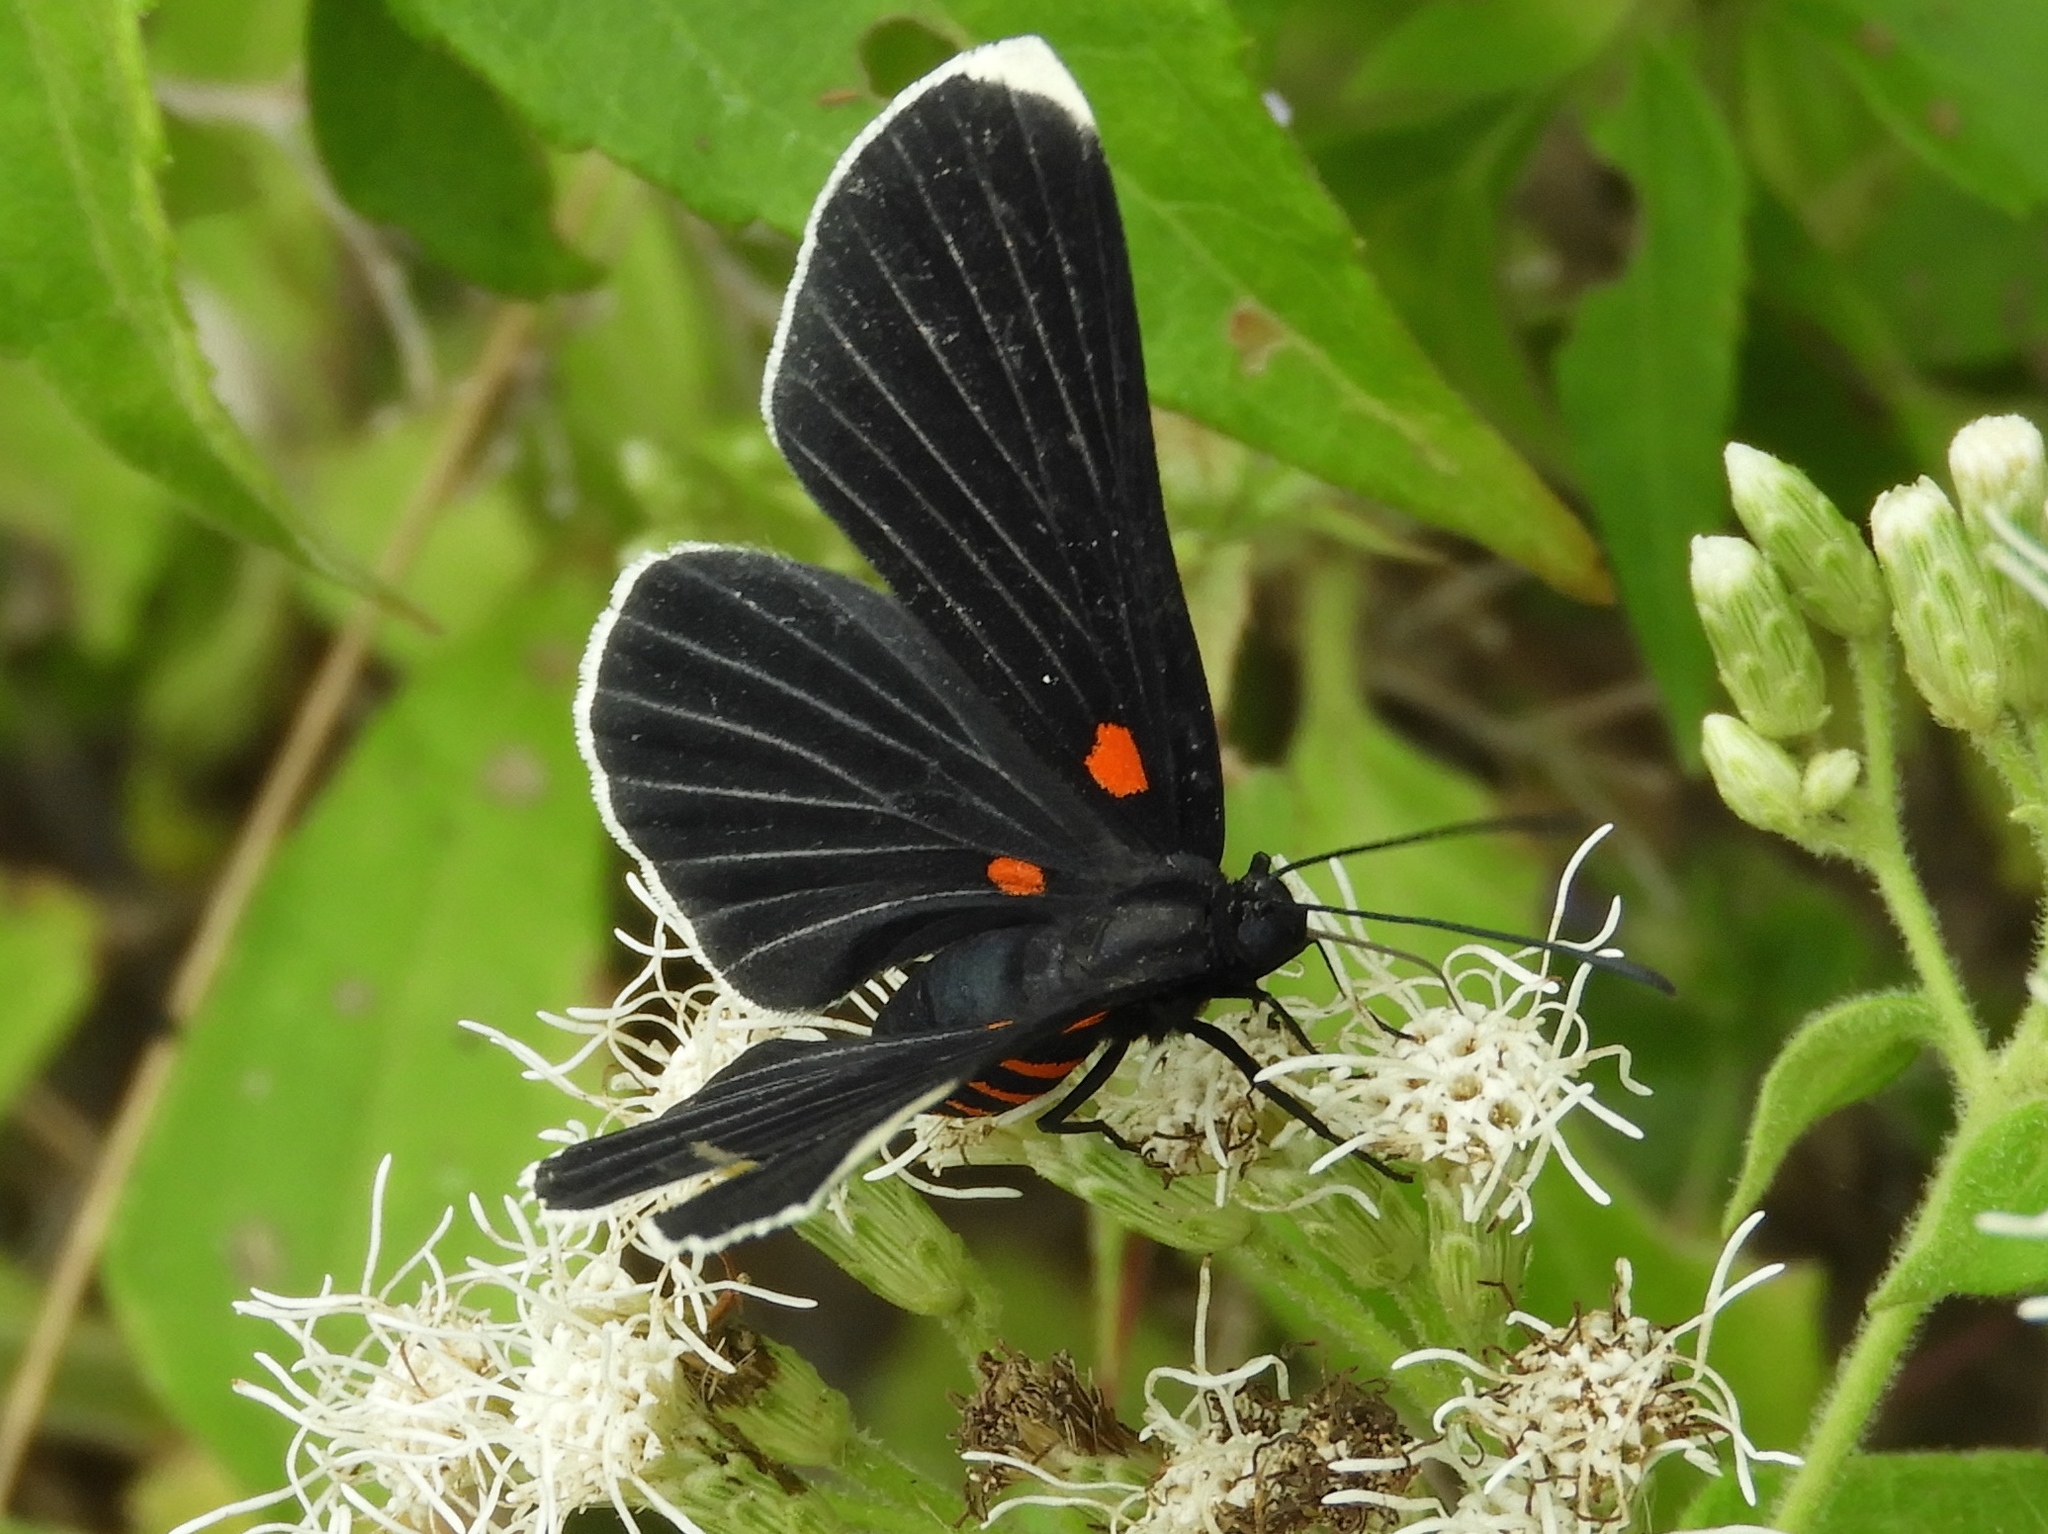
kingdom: Animalia
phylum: Arthropoda
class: Insecta
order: Lepidoptera
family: Lycaenidae
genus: Melanis
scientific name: Melanis
